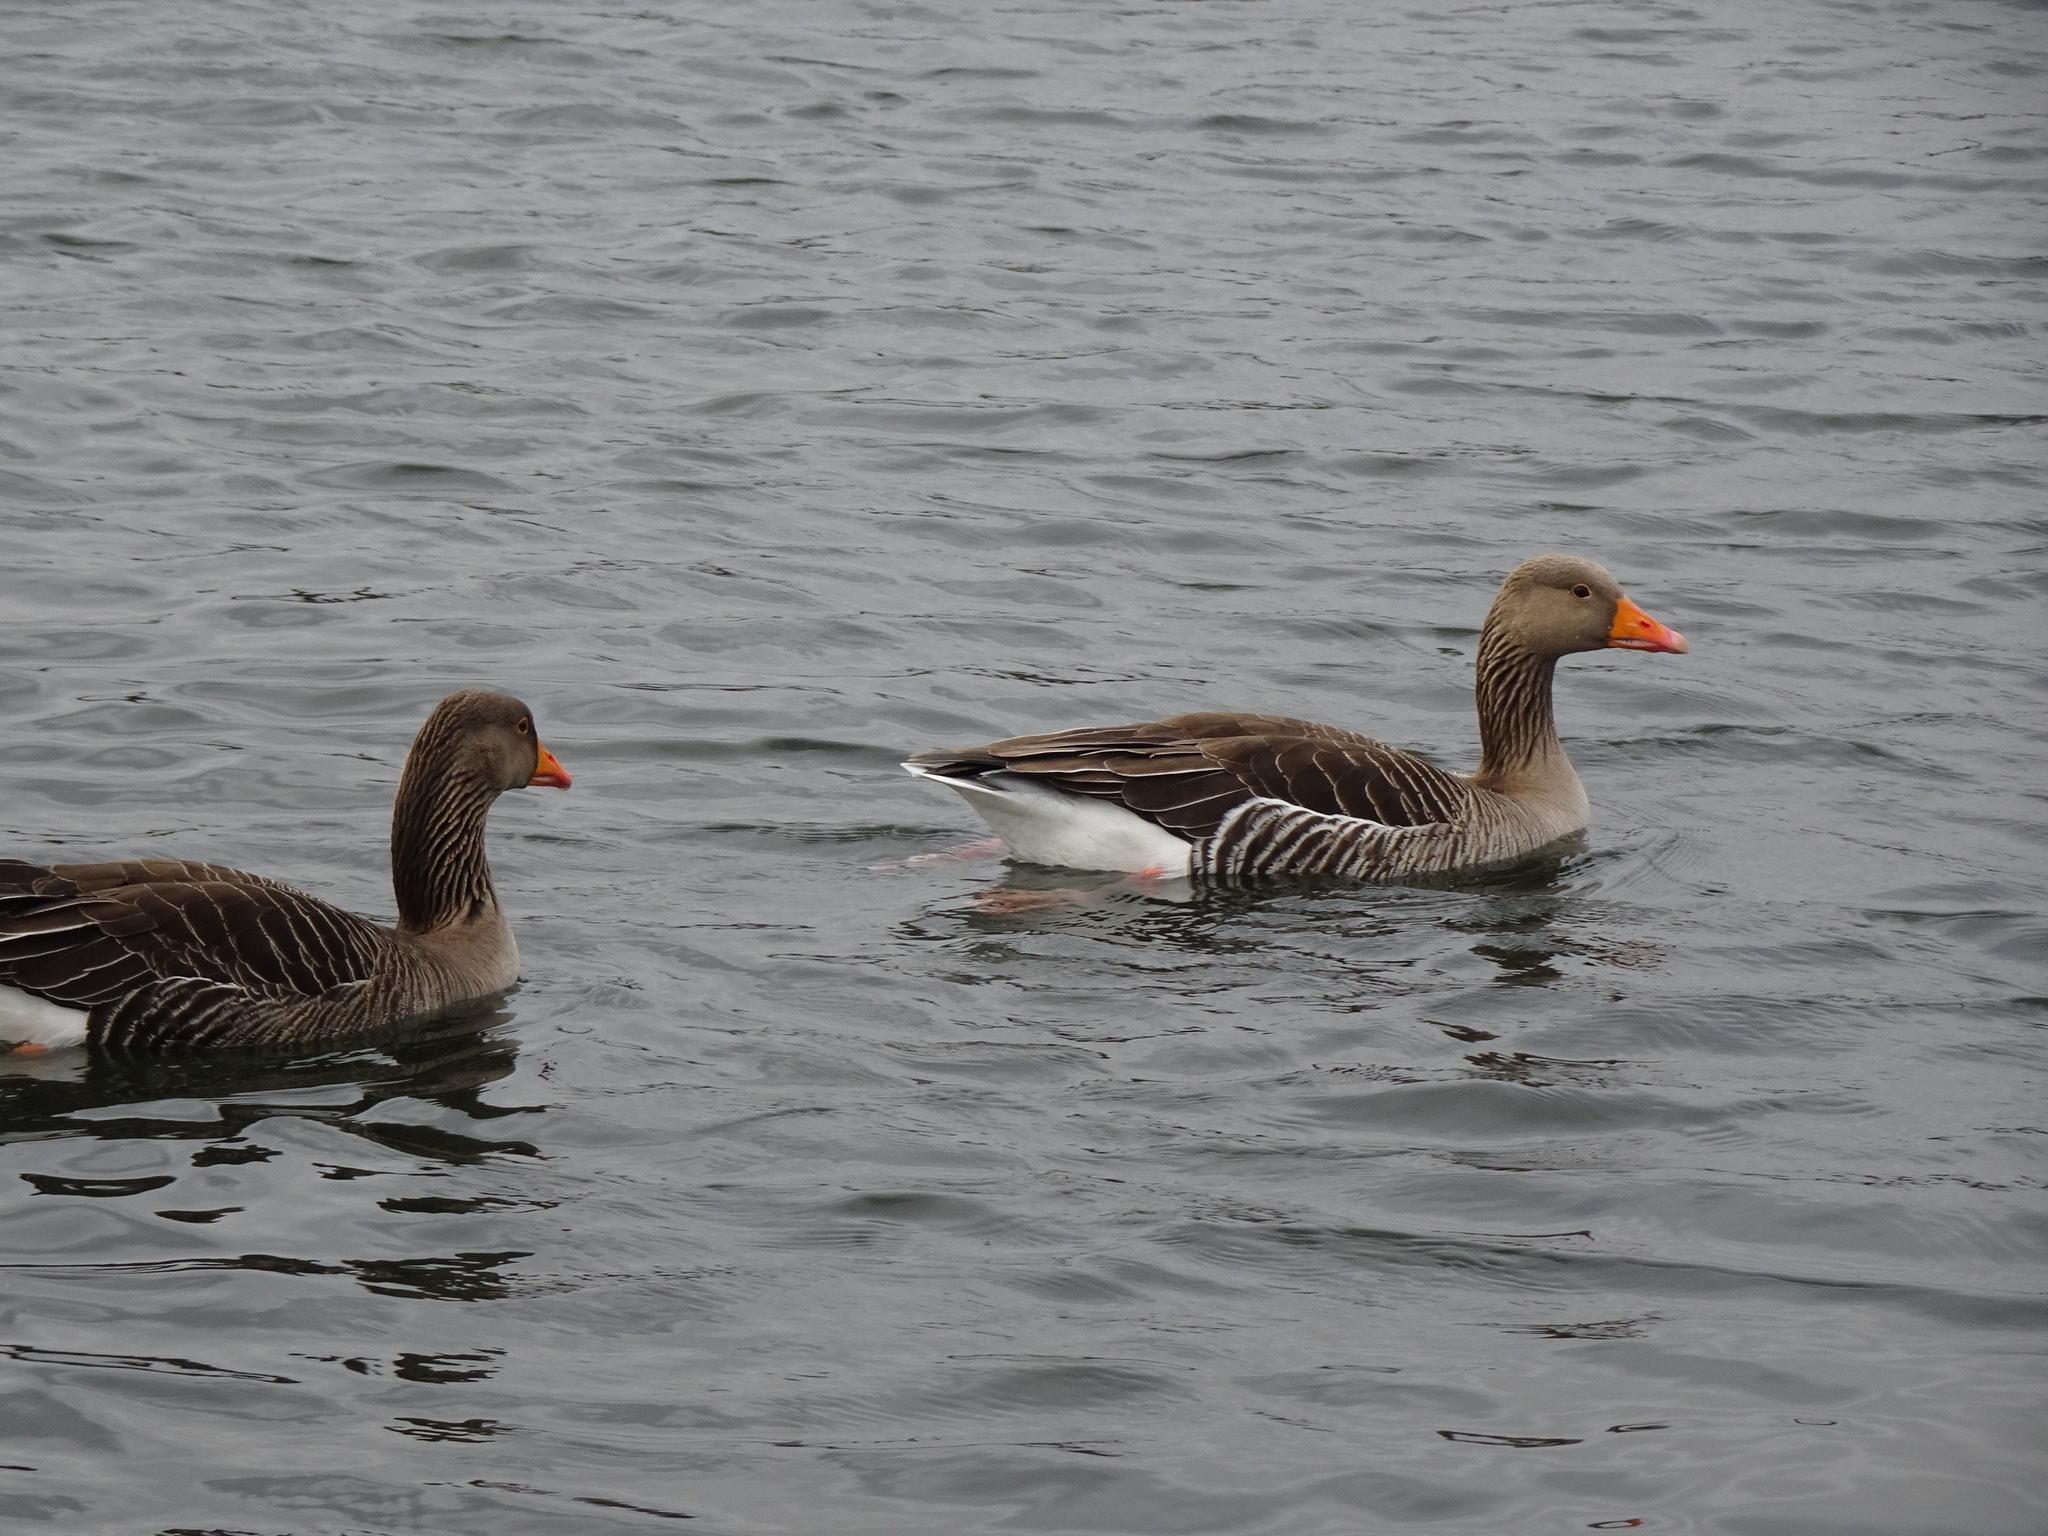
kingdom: Animalia
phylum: Chordata
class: Aves
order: Anseriformes
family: Anatidae
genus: Anser
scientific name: Anser anser
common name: Greylag goose
